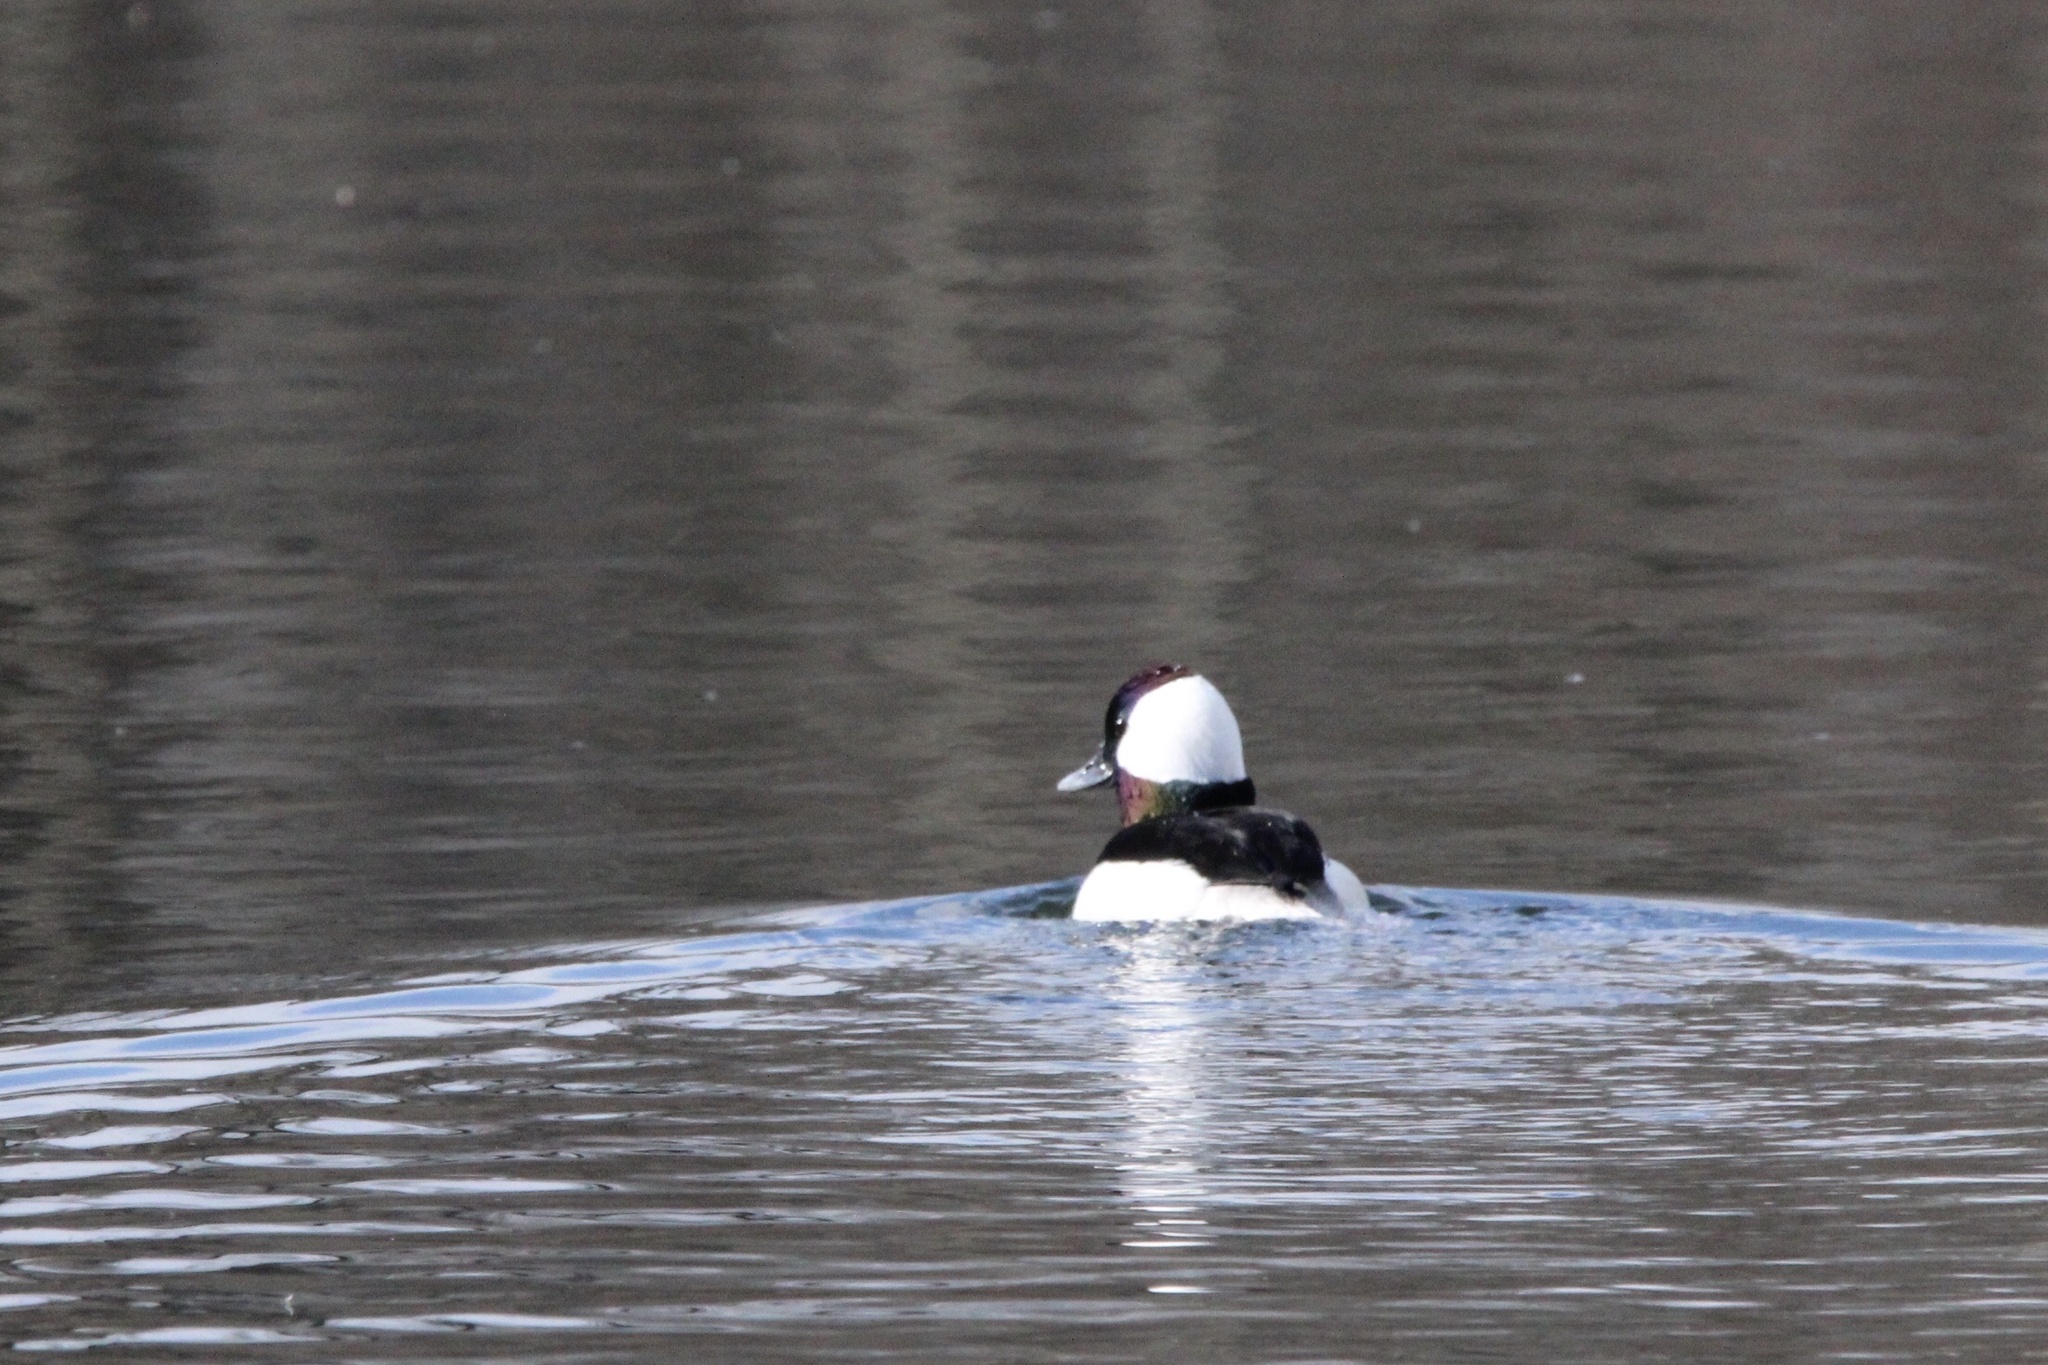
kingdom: Animalia
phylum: Chordata
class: Aves
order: Anseriformes
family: Anatidae
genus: Bucephala
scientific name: Bucephala albeola
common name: Bufflehead
